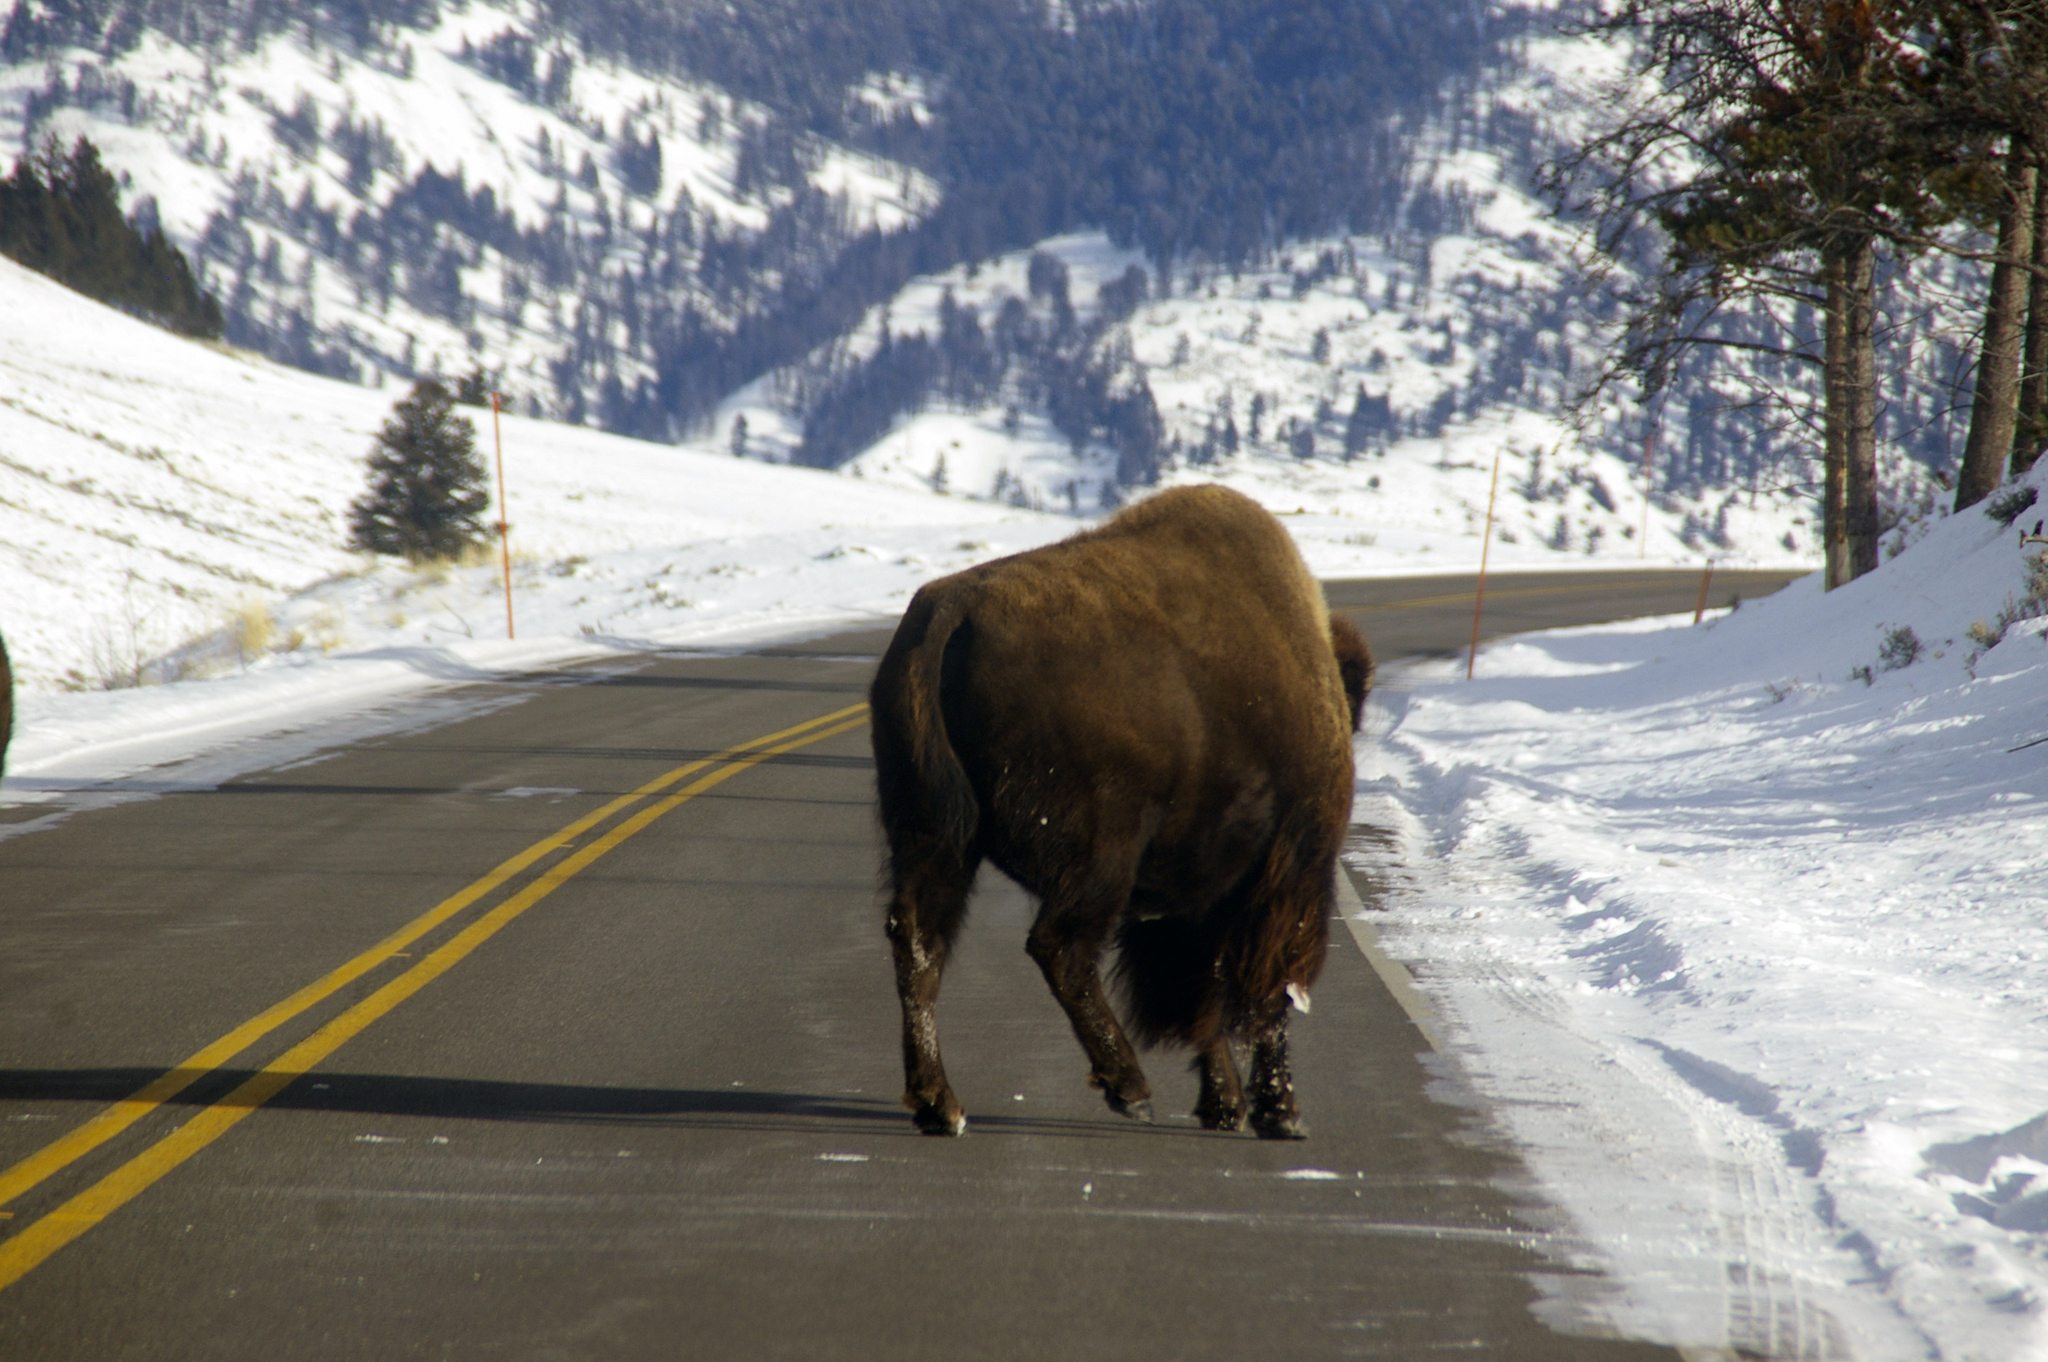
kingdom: Animalia
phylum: Chordata
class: Mammalia
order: Artiodactyla
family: Bovidae
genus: Bison
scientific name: Bison bison
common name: American bison
